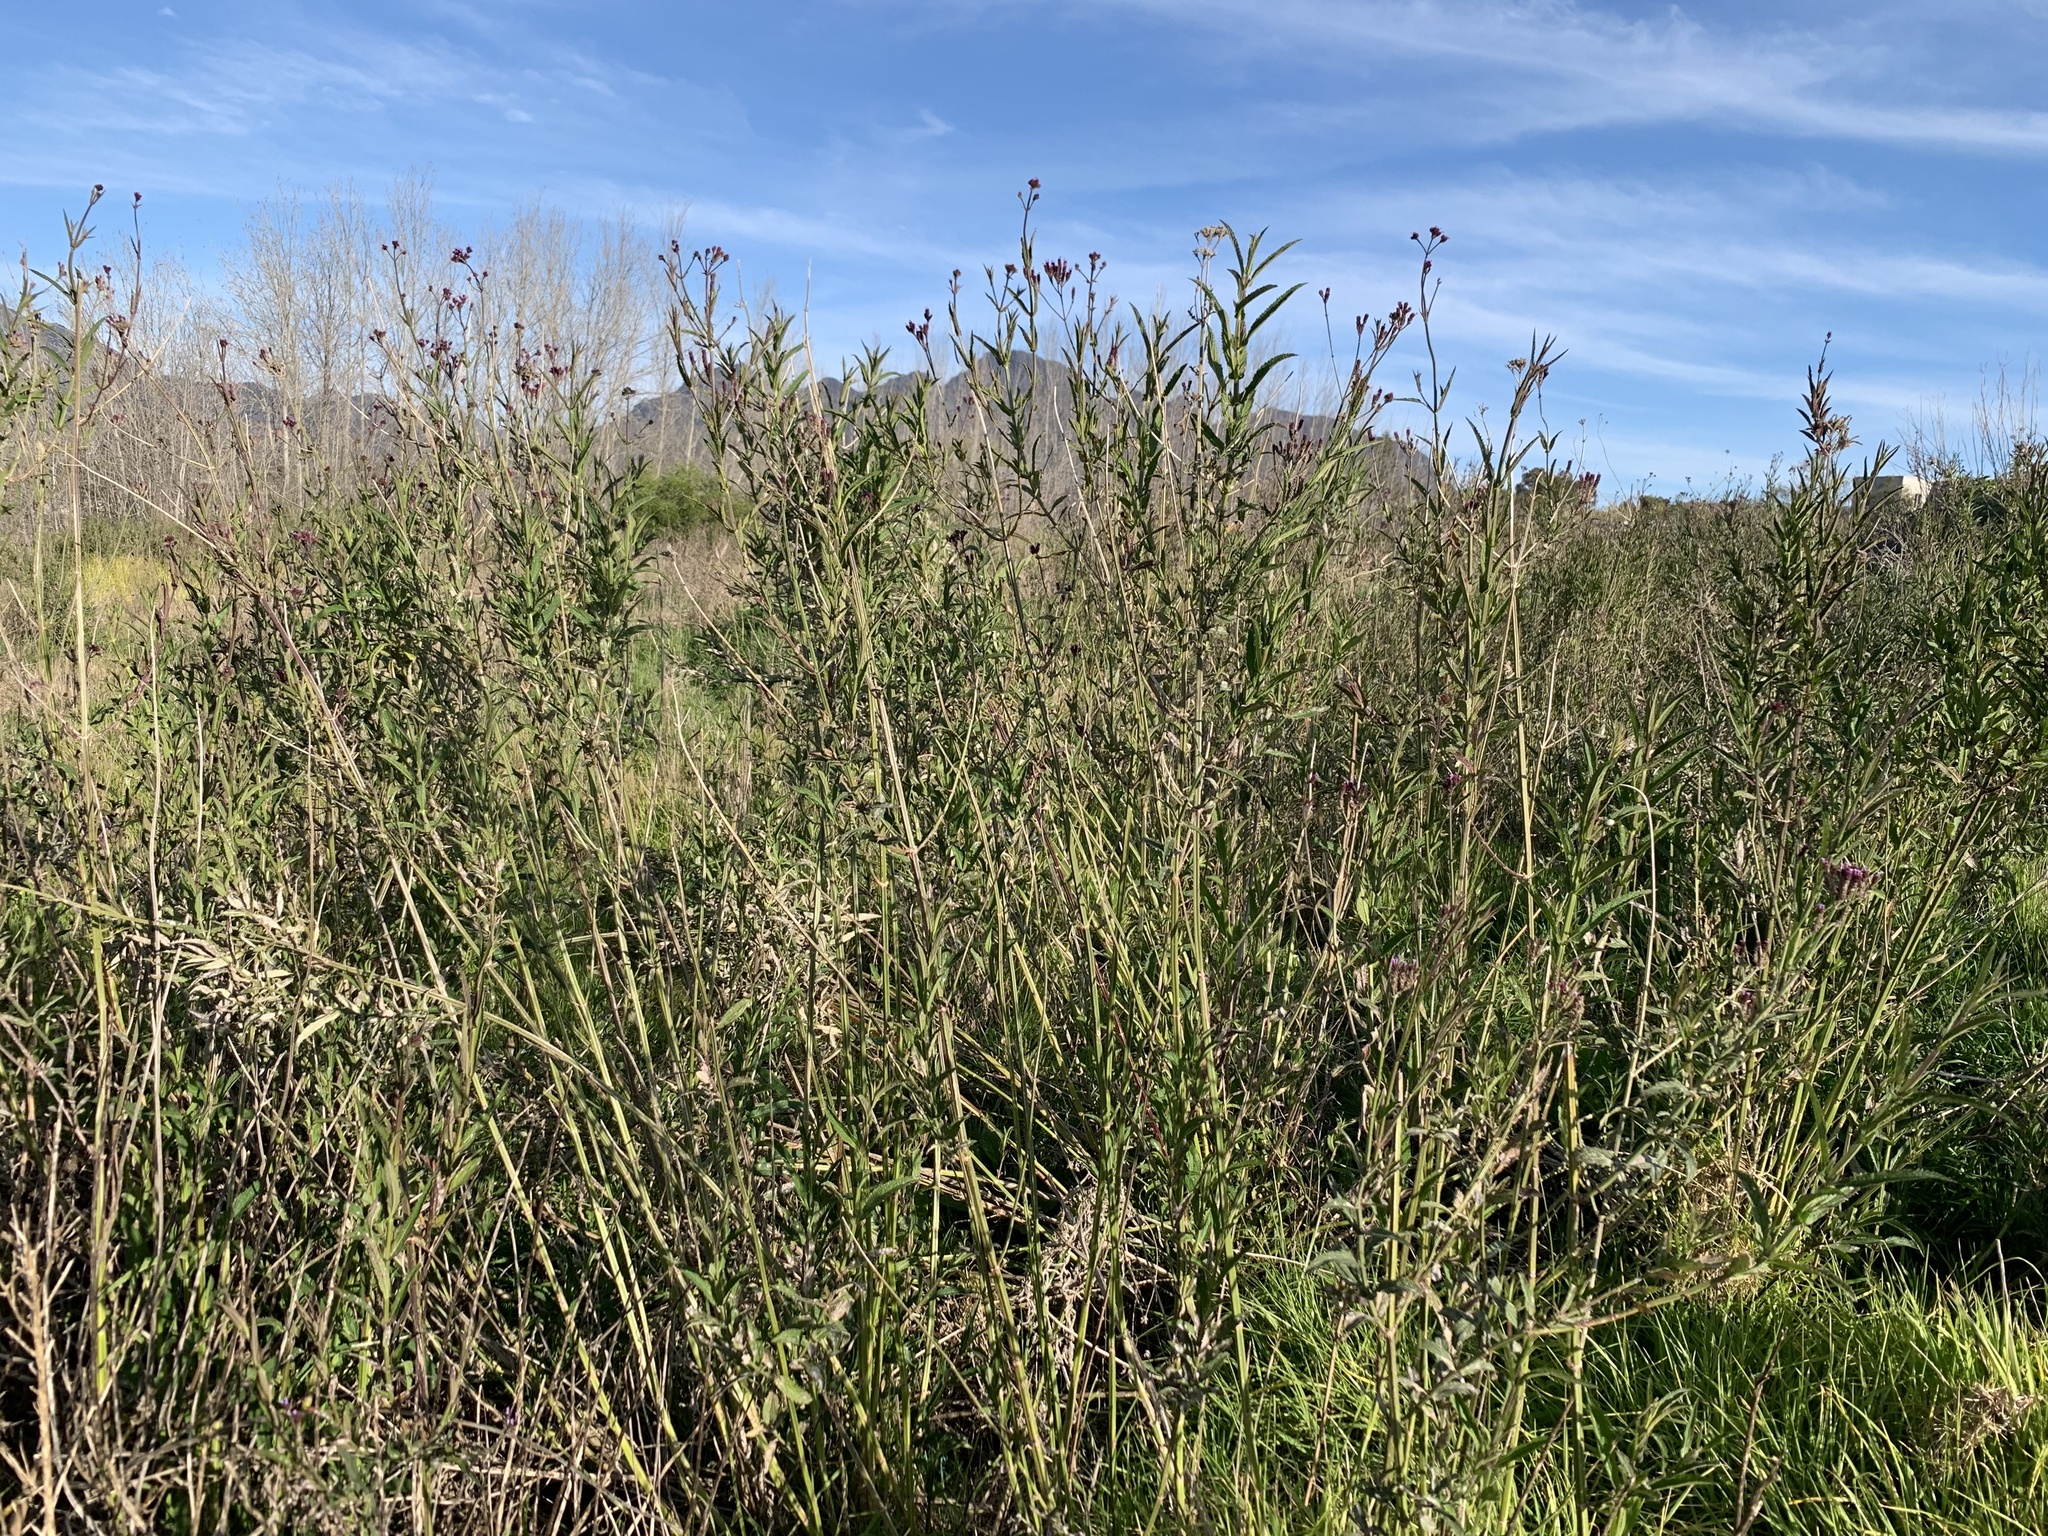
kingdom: Plantae
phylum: Tracheophyta
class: Magnoliopsida
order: Lamiales
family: Verbenaceae
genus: Verbena
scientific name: Verbena bonariensis
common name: Purpletop vervain
